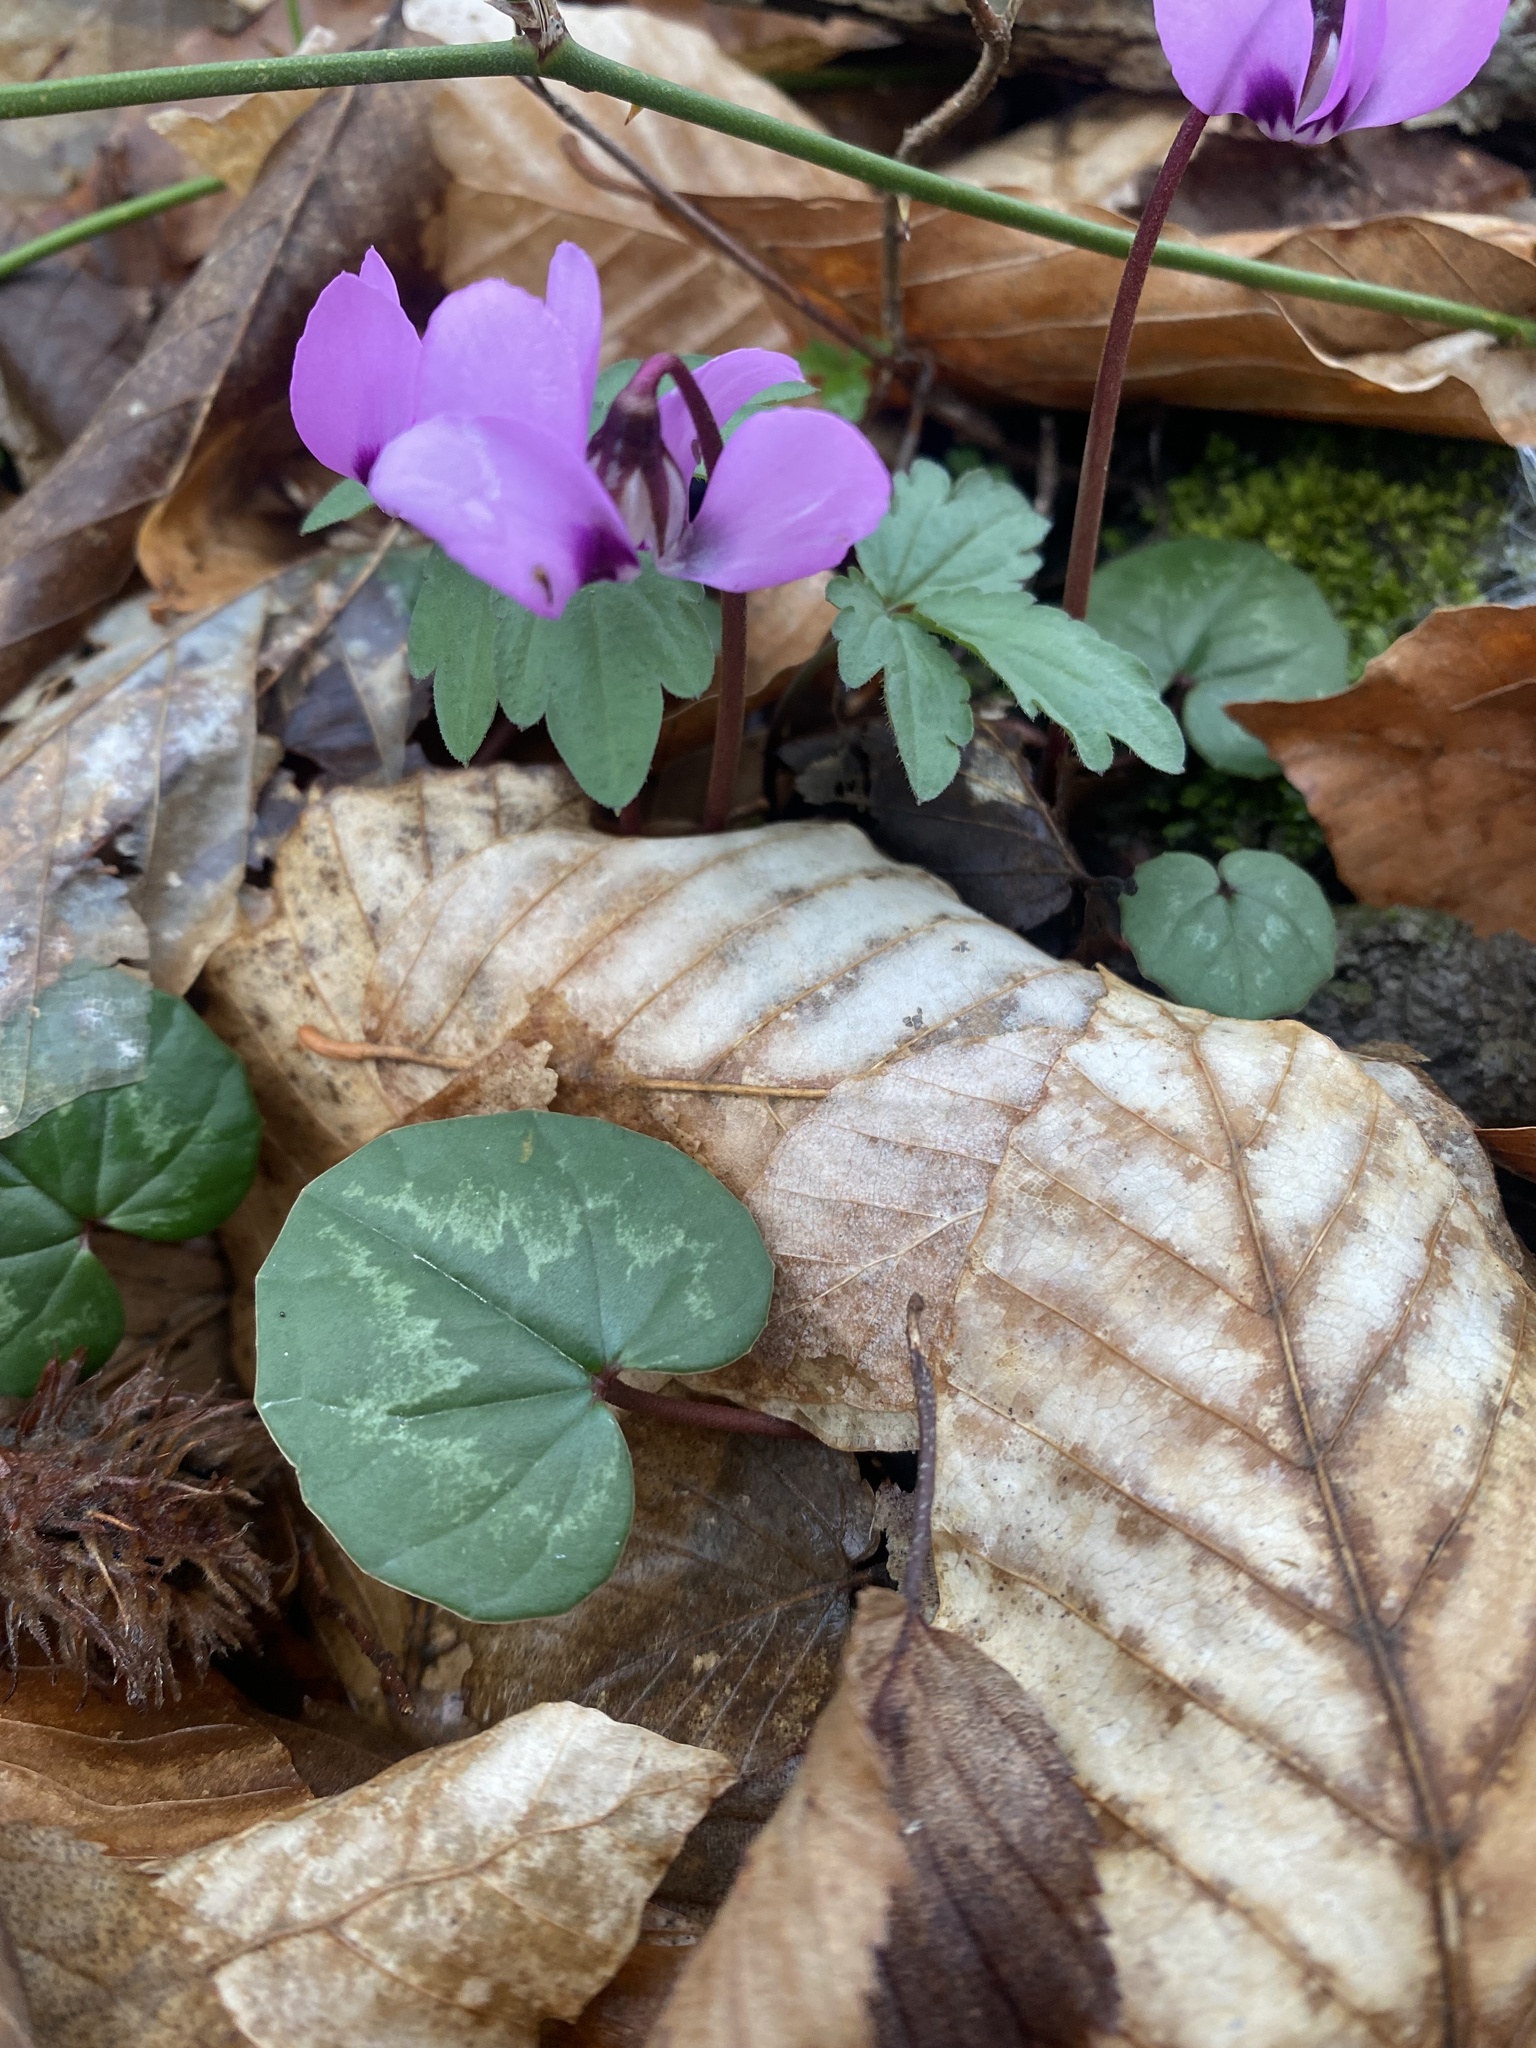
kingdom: Plantae
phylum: Tracheophyta
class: Magnoliopsida
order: Ericales
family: Primulaceae
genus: Cyclamen
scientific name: Cyclamen coum
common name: Eastern sowbread
